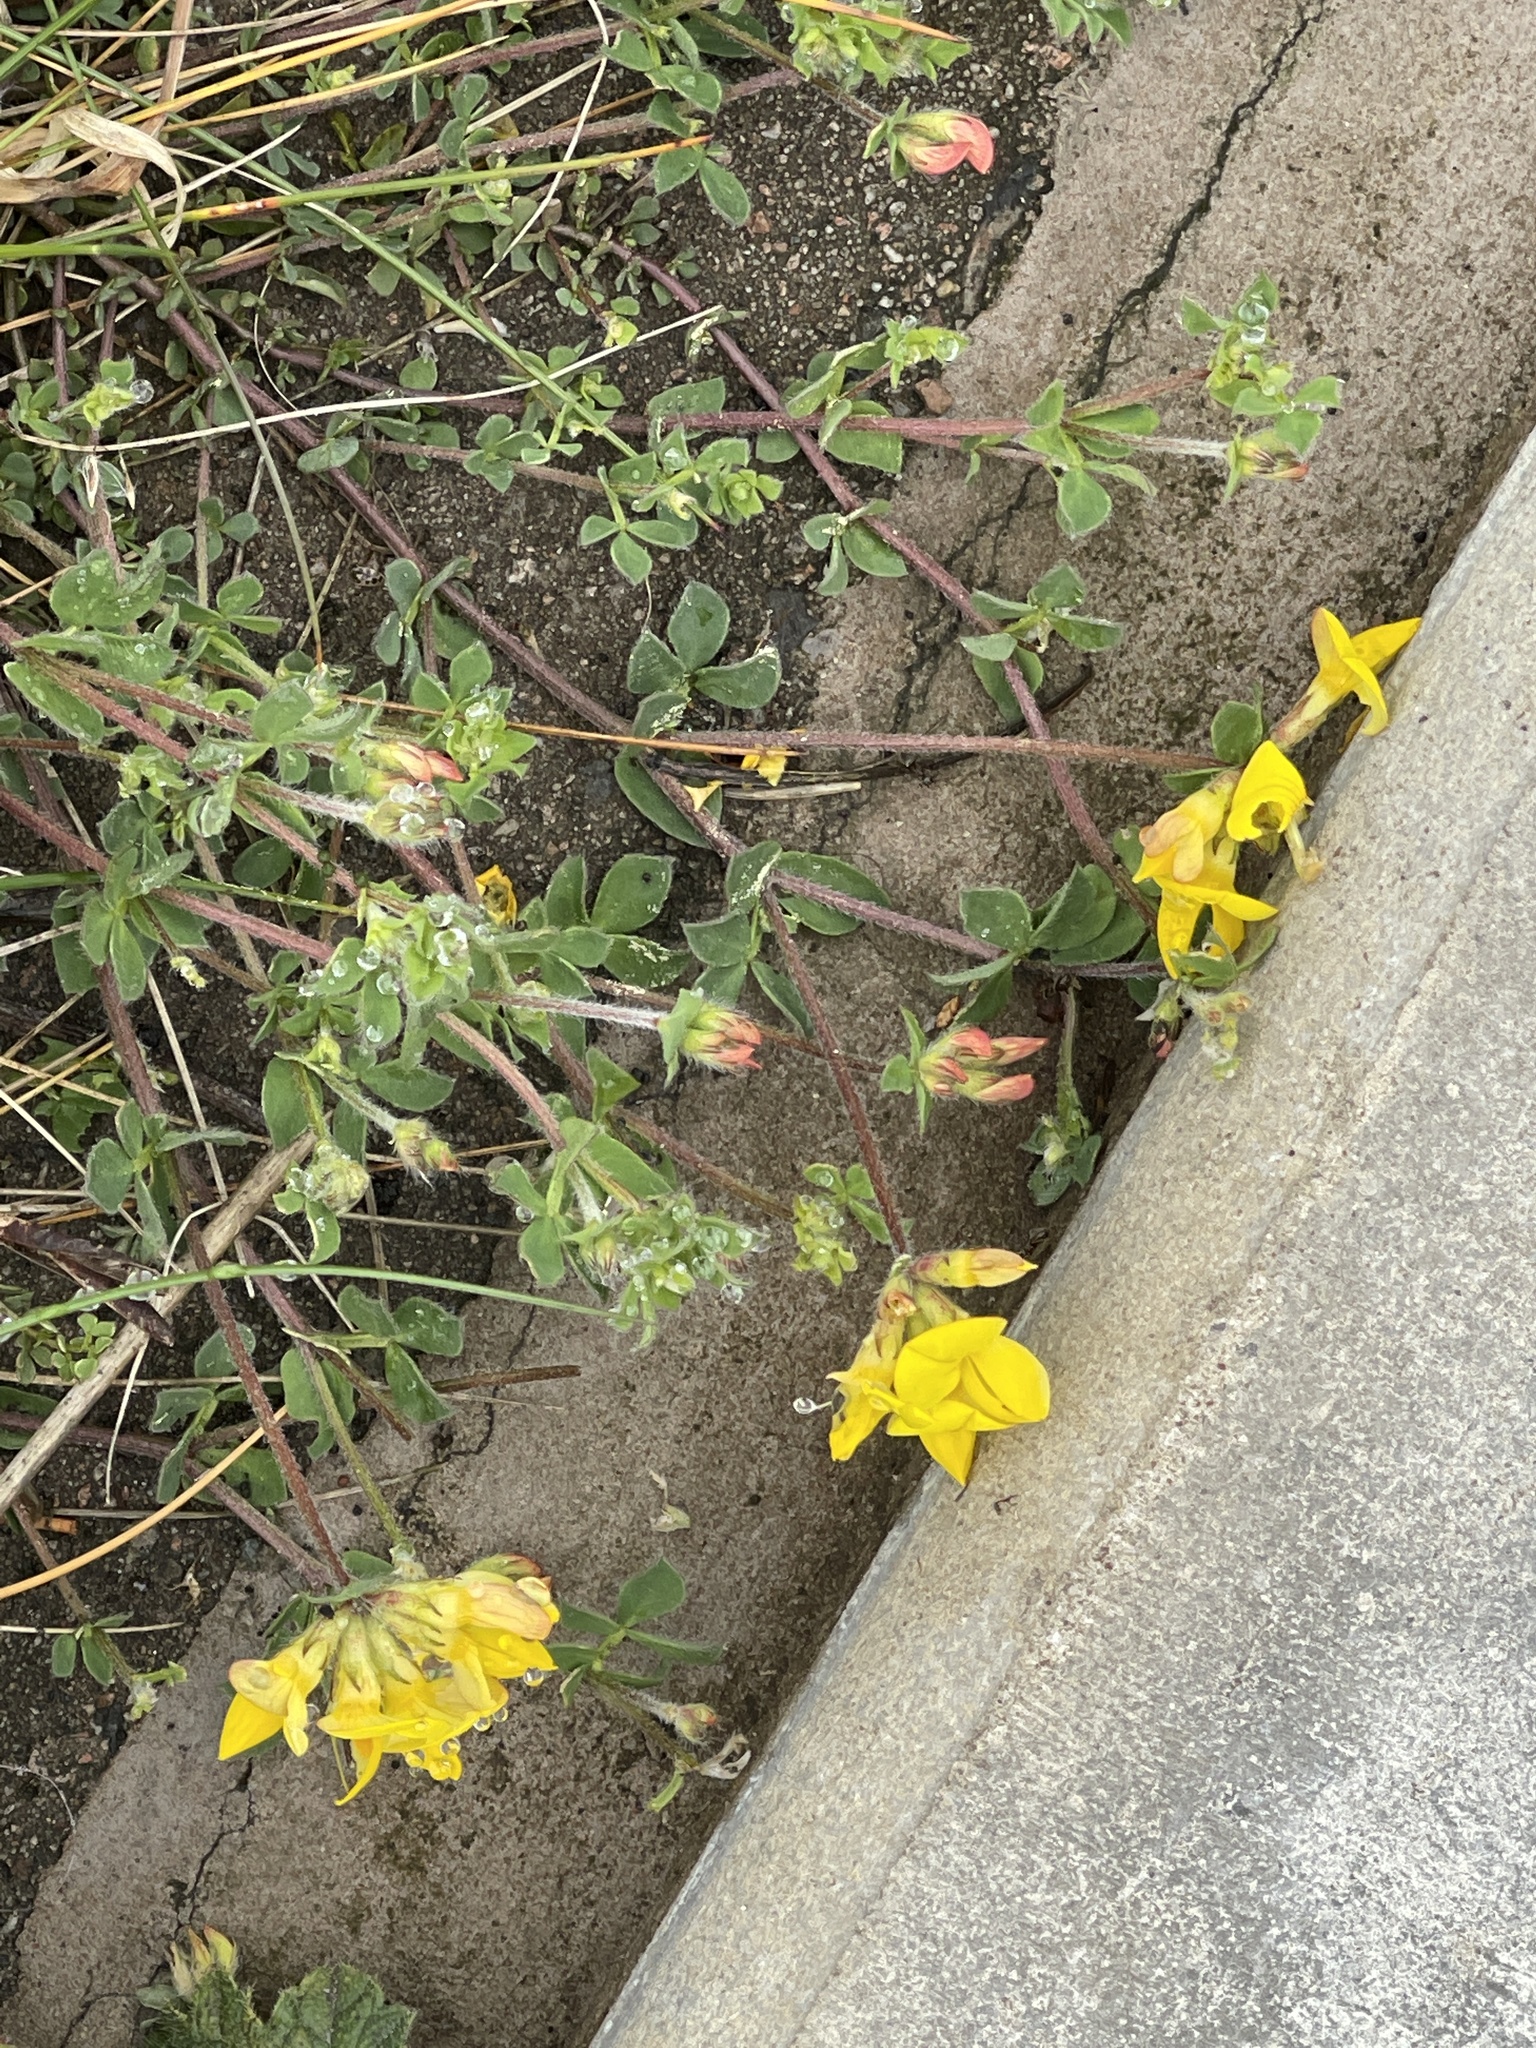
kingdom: Plantae
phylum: Tracheophyta
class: Magnoliopsida
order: Fabales
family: Fabaceae
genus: Lotus
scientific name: Lotus corniculatus
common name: Common bird's-foot-trefoil
